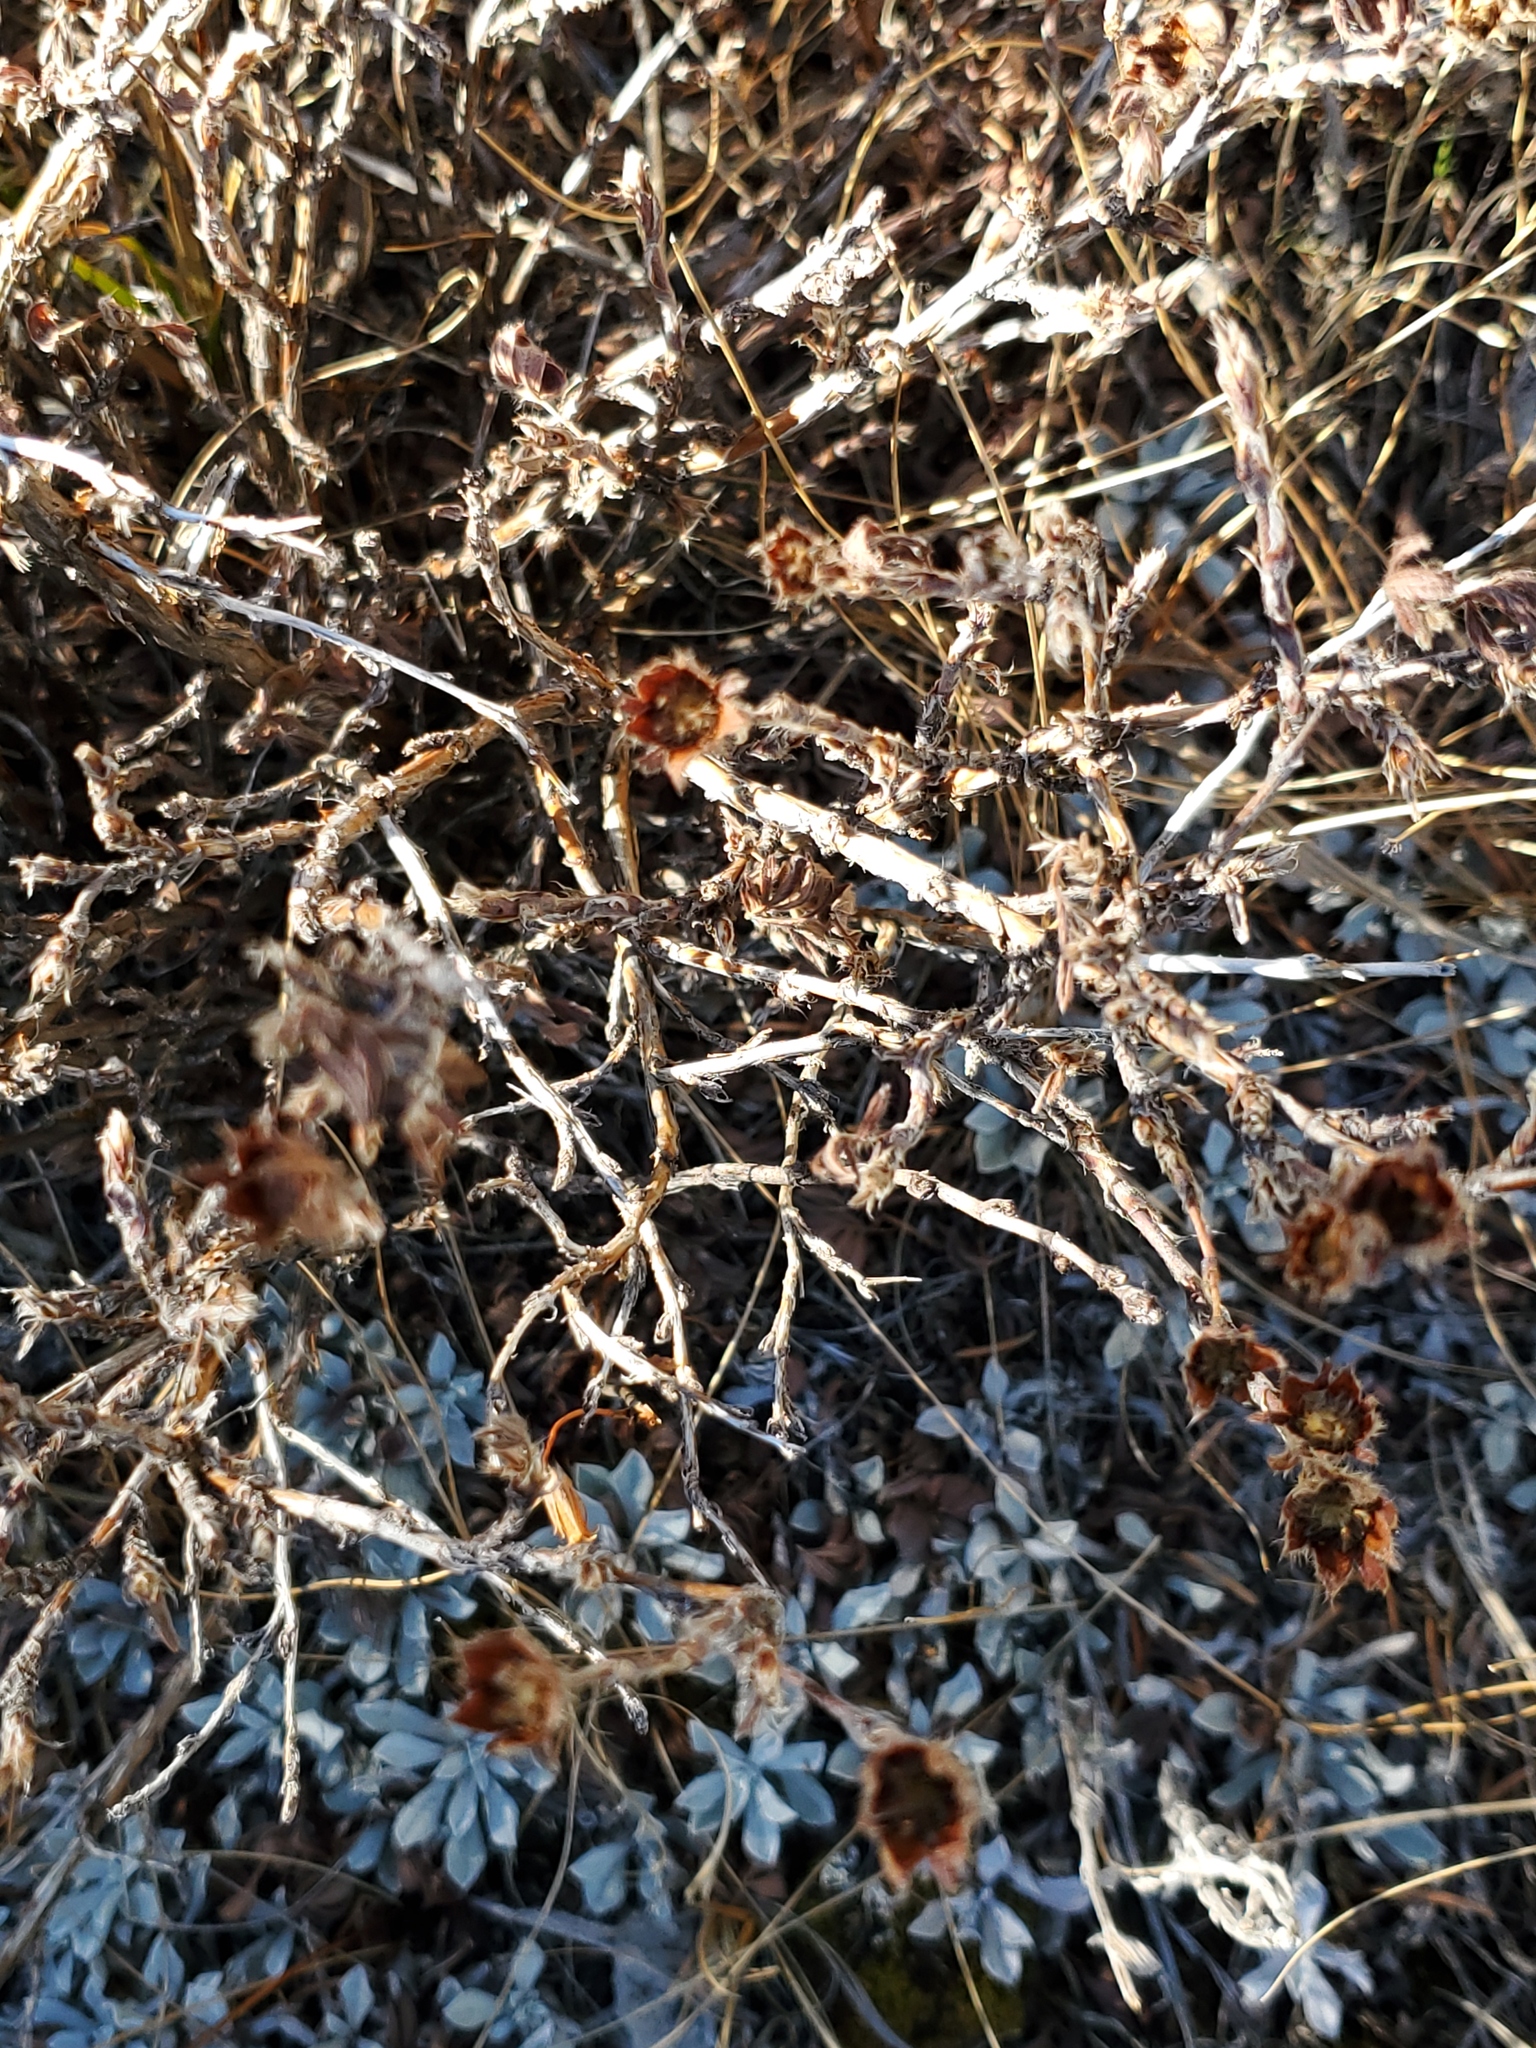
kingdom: Plantae
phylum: Tracheophyta
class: Magnoliopsida
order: Rosales
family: Rosaceae
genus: Dasiphora
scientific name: Dasiphora fruticosa
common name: Shrubby cinquefoil
